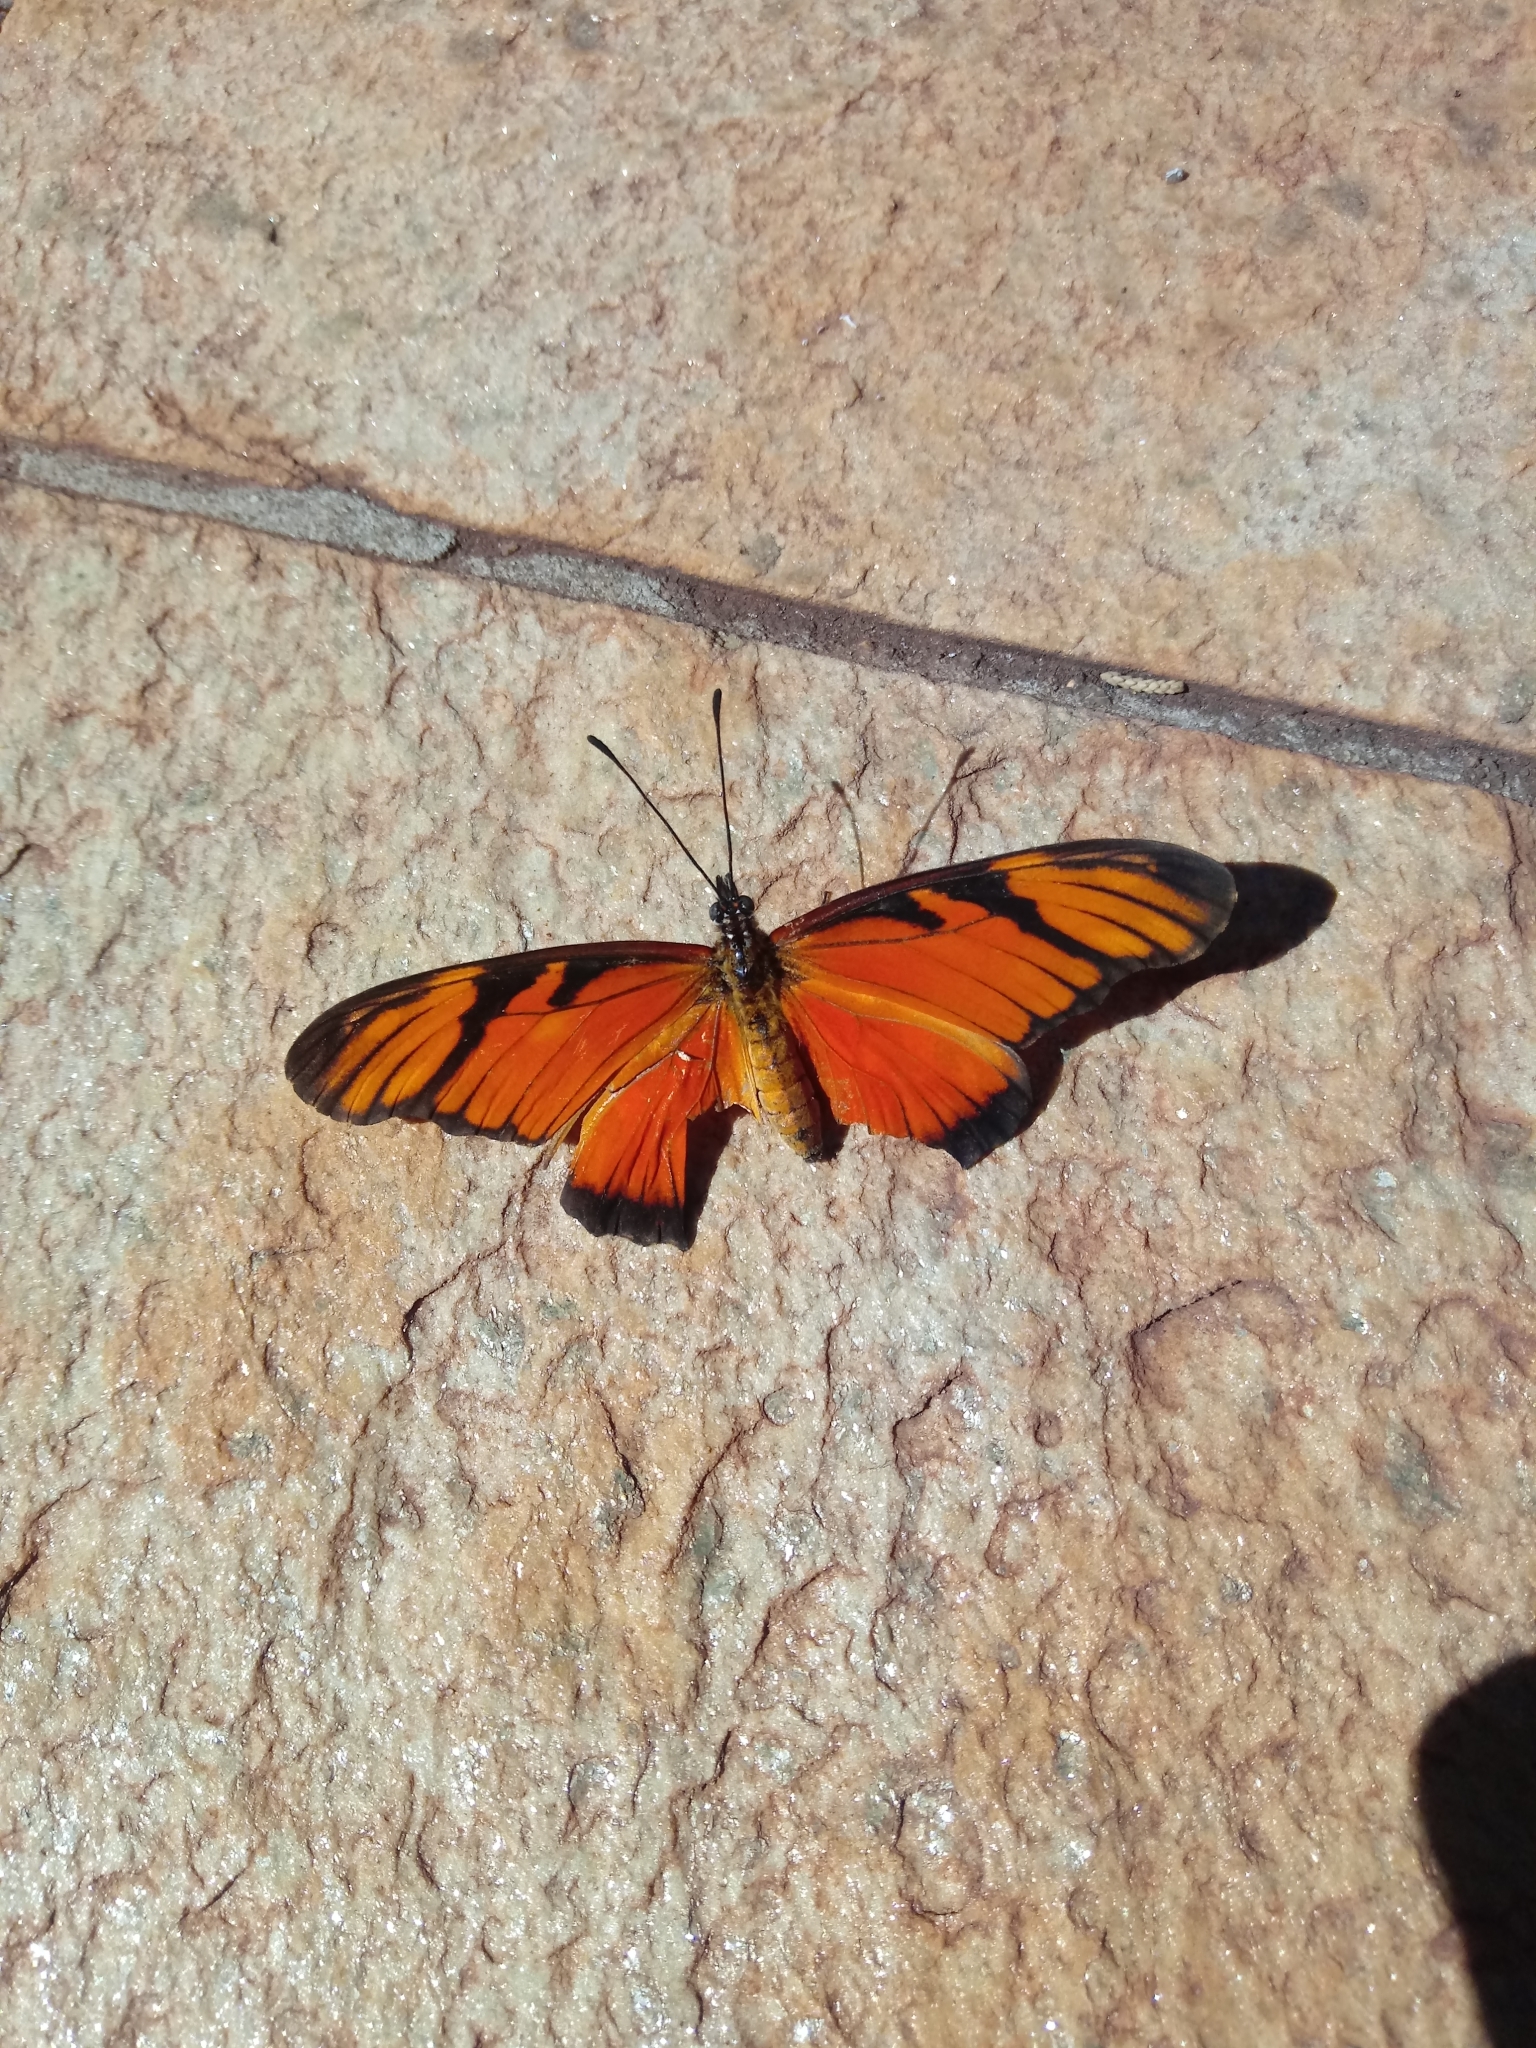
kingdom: Animalia
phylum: Arthropoda
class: Insecta
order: Lepidoptera
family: Nymphalidae
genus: Dione
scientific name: Dione juno
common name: Juno silverspot
